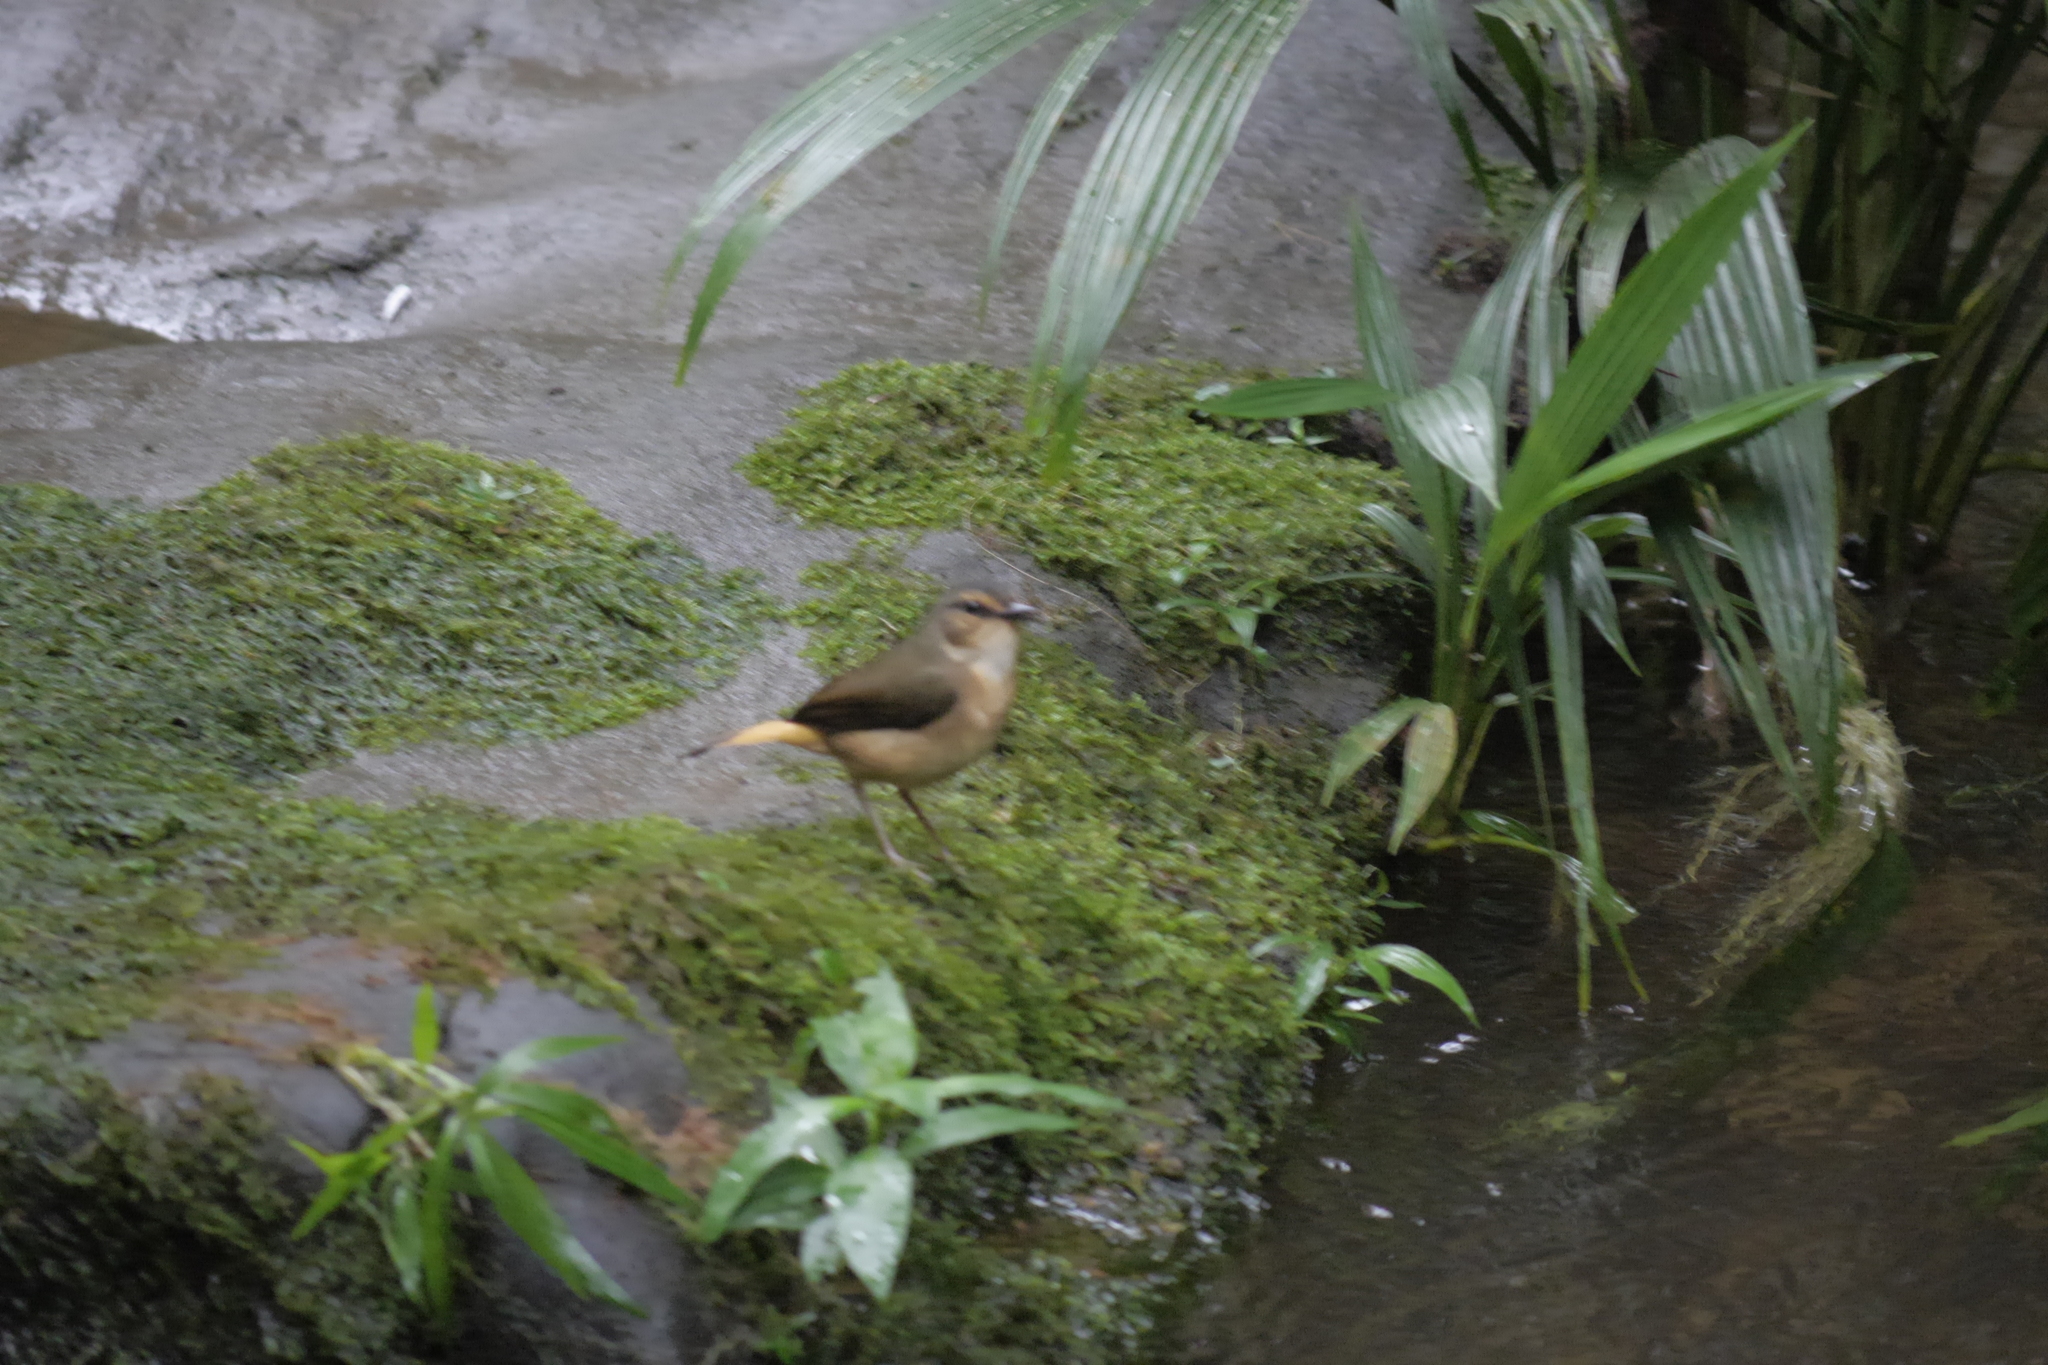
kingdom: Animalia
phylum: Chordata
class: Aves
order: Passeriformes
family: Parulidae
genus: Myiothlypis
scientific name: Myiothlypis fulvicauda
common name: Buff-rumped warbler
